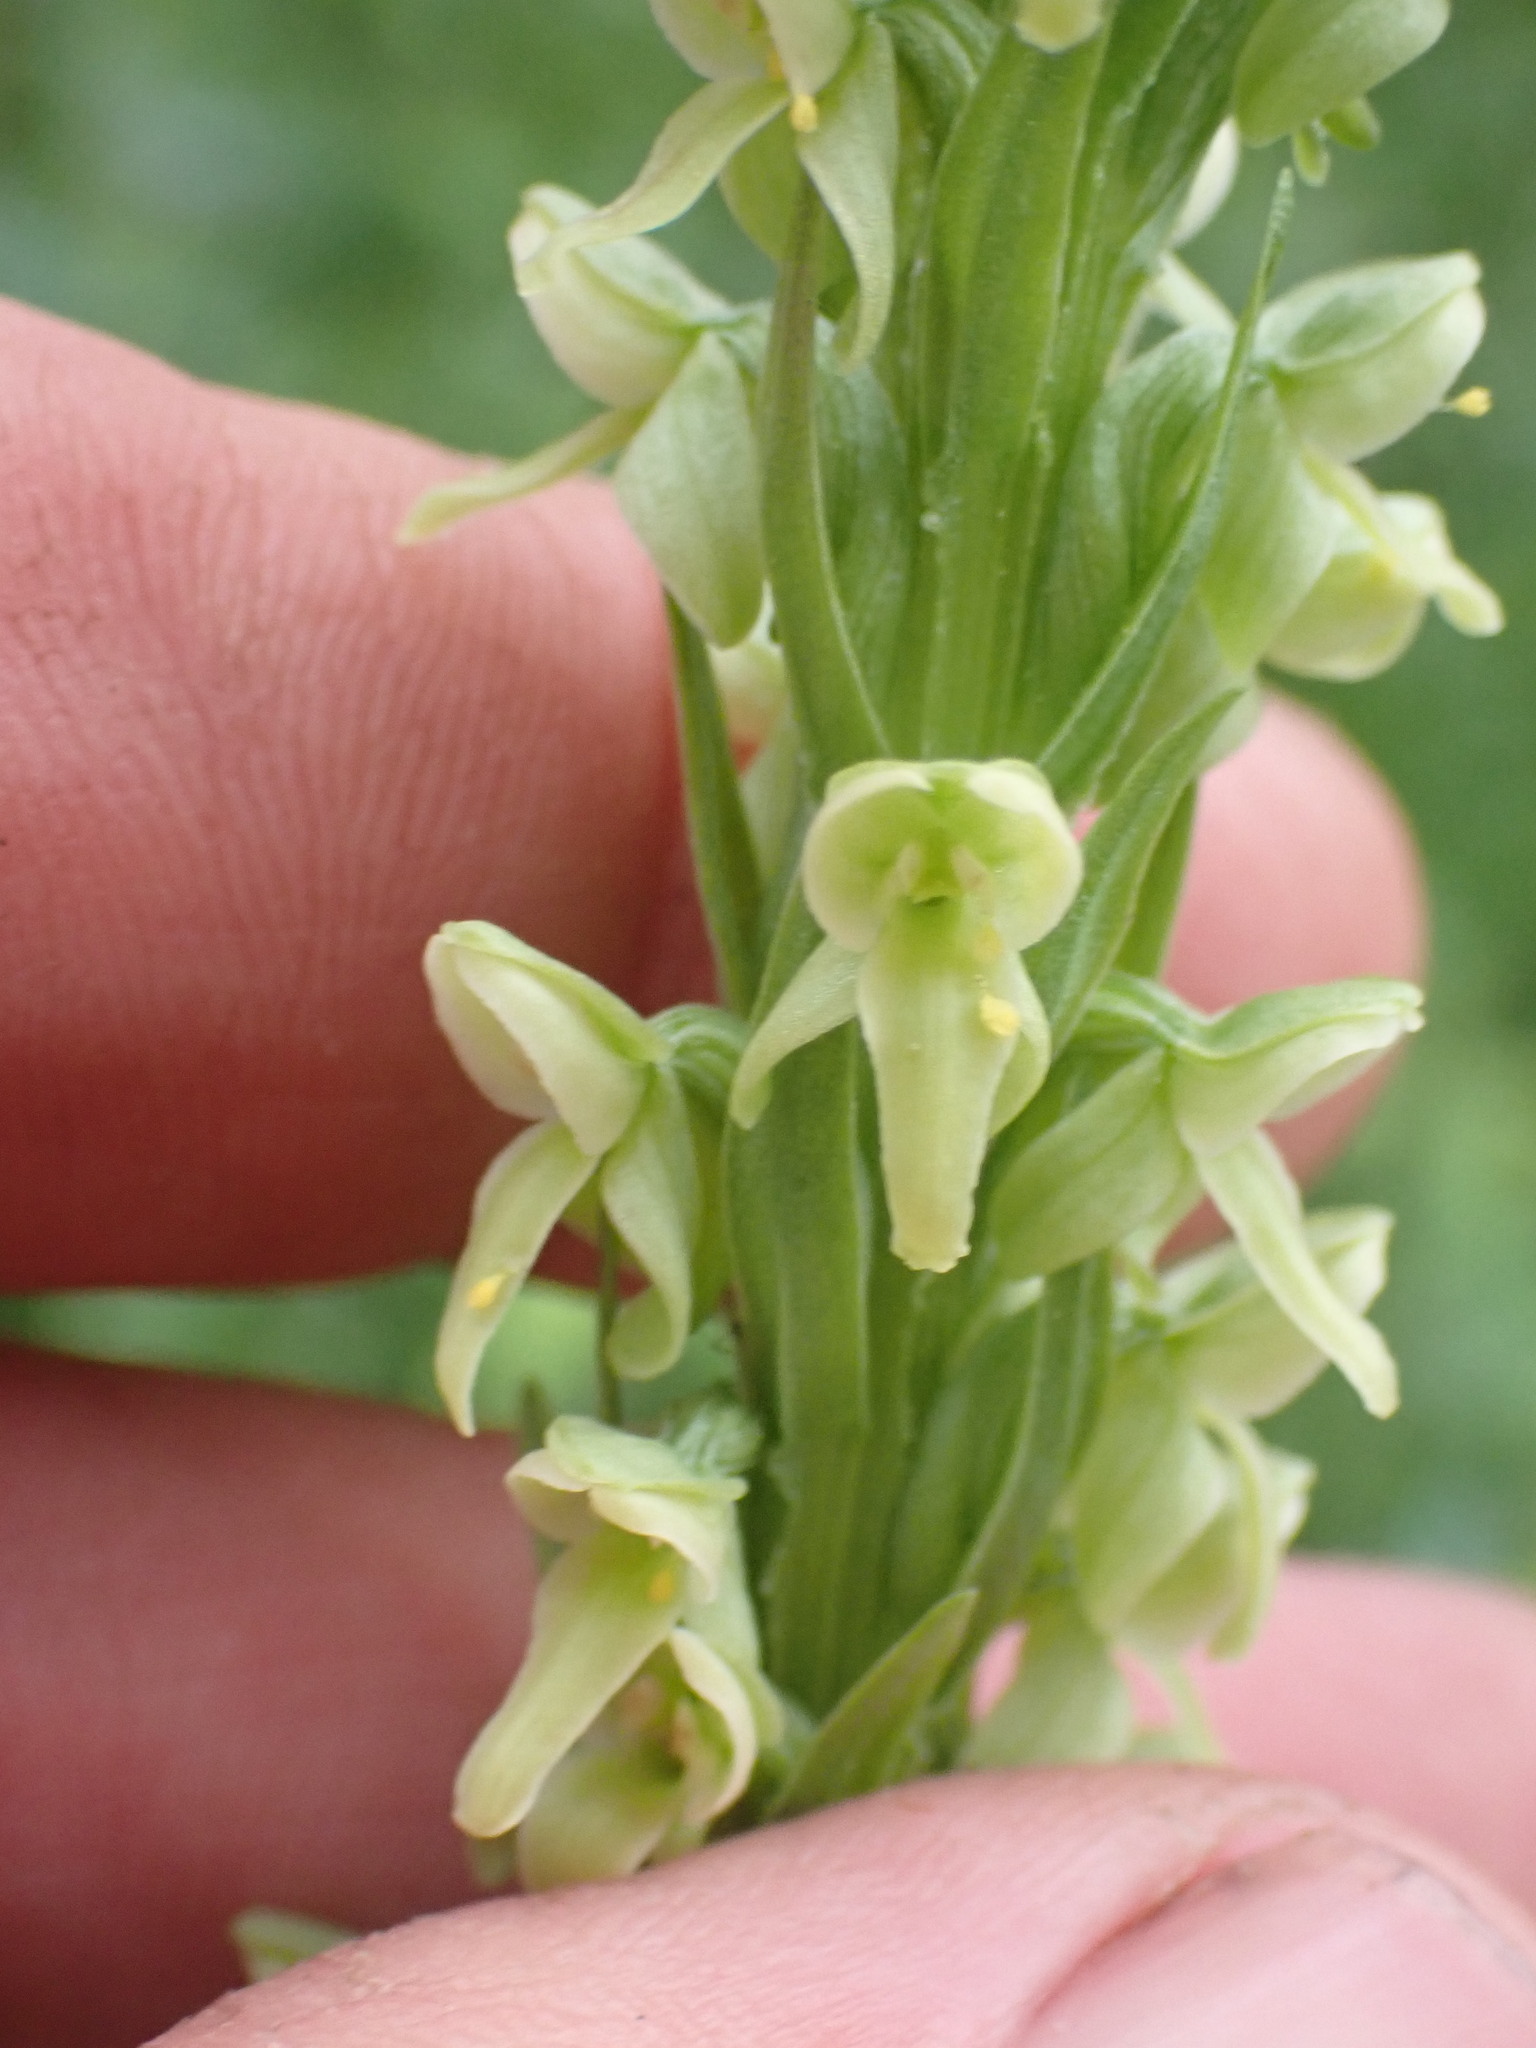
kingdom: Plantae
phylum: Tracheophyta
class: Liliopsida
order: Asparagales
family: Orchidaceae
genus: Platanthera
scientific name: Platanthera huronensis
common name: Fragrant green orchid
